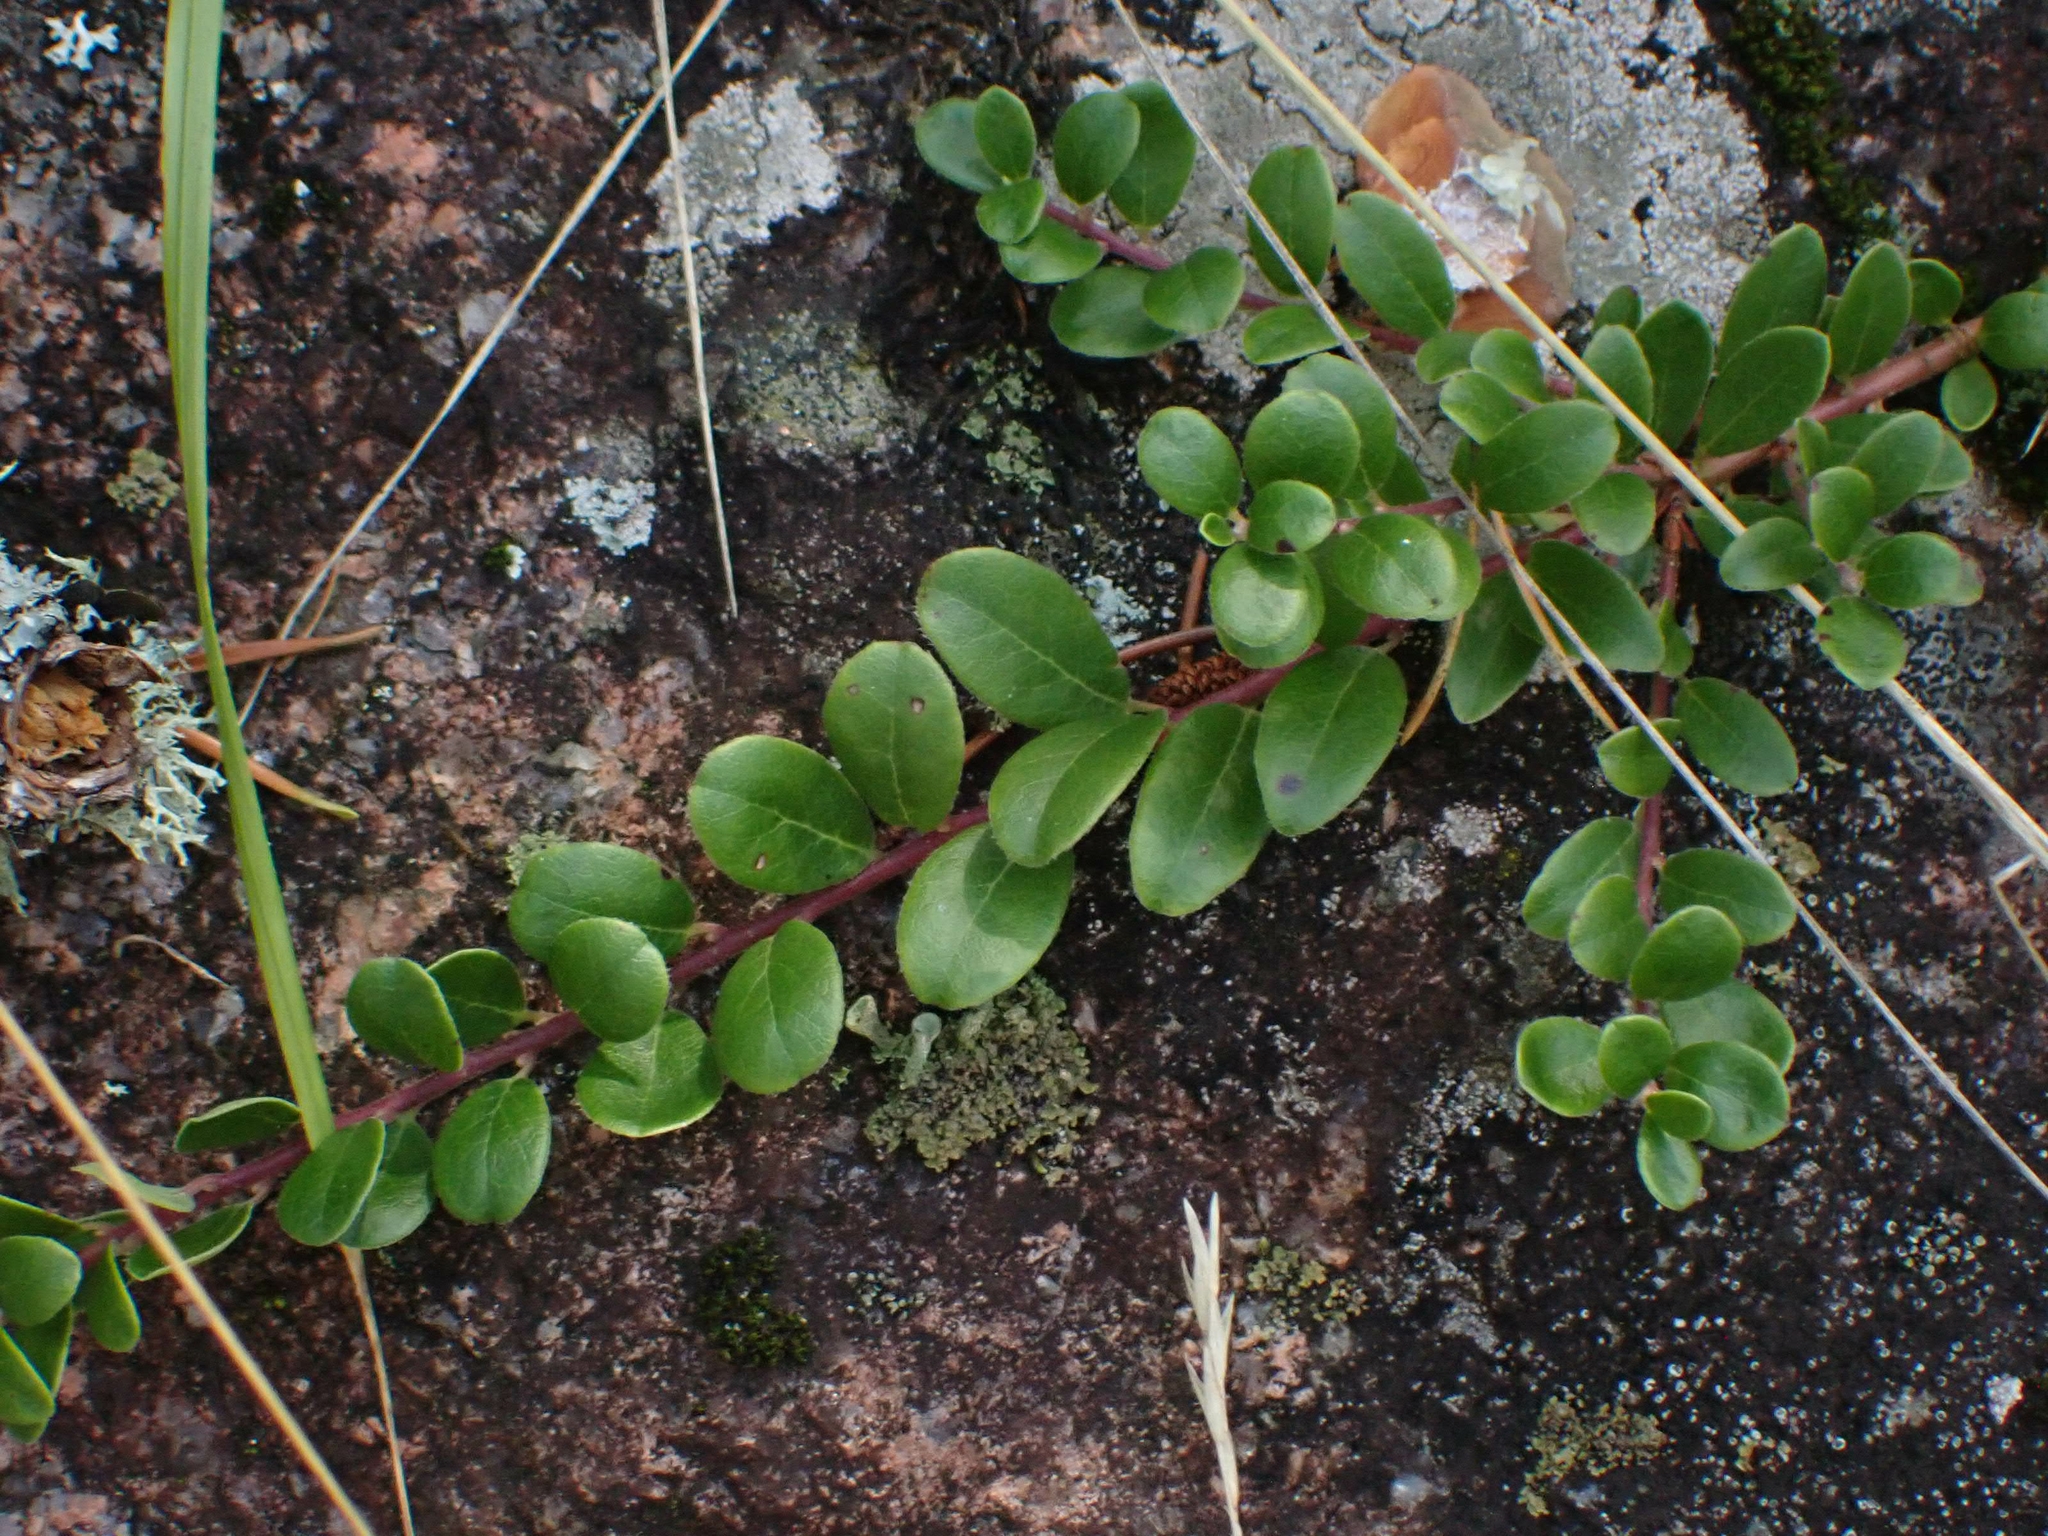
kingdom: Plantae
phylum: Tracheophyta
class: Magnoliopsida
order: Ericales
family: Ericaceae
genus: Arctostaphylos
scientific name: Arctostaphylos uva-ursi
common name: Bearberry
